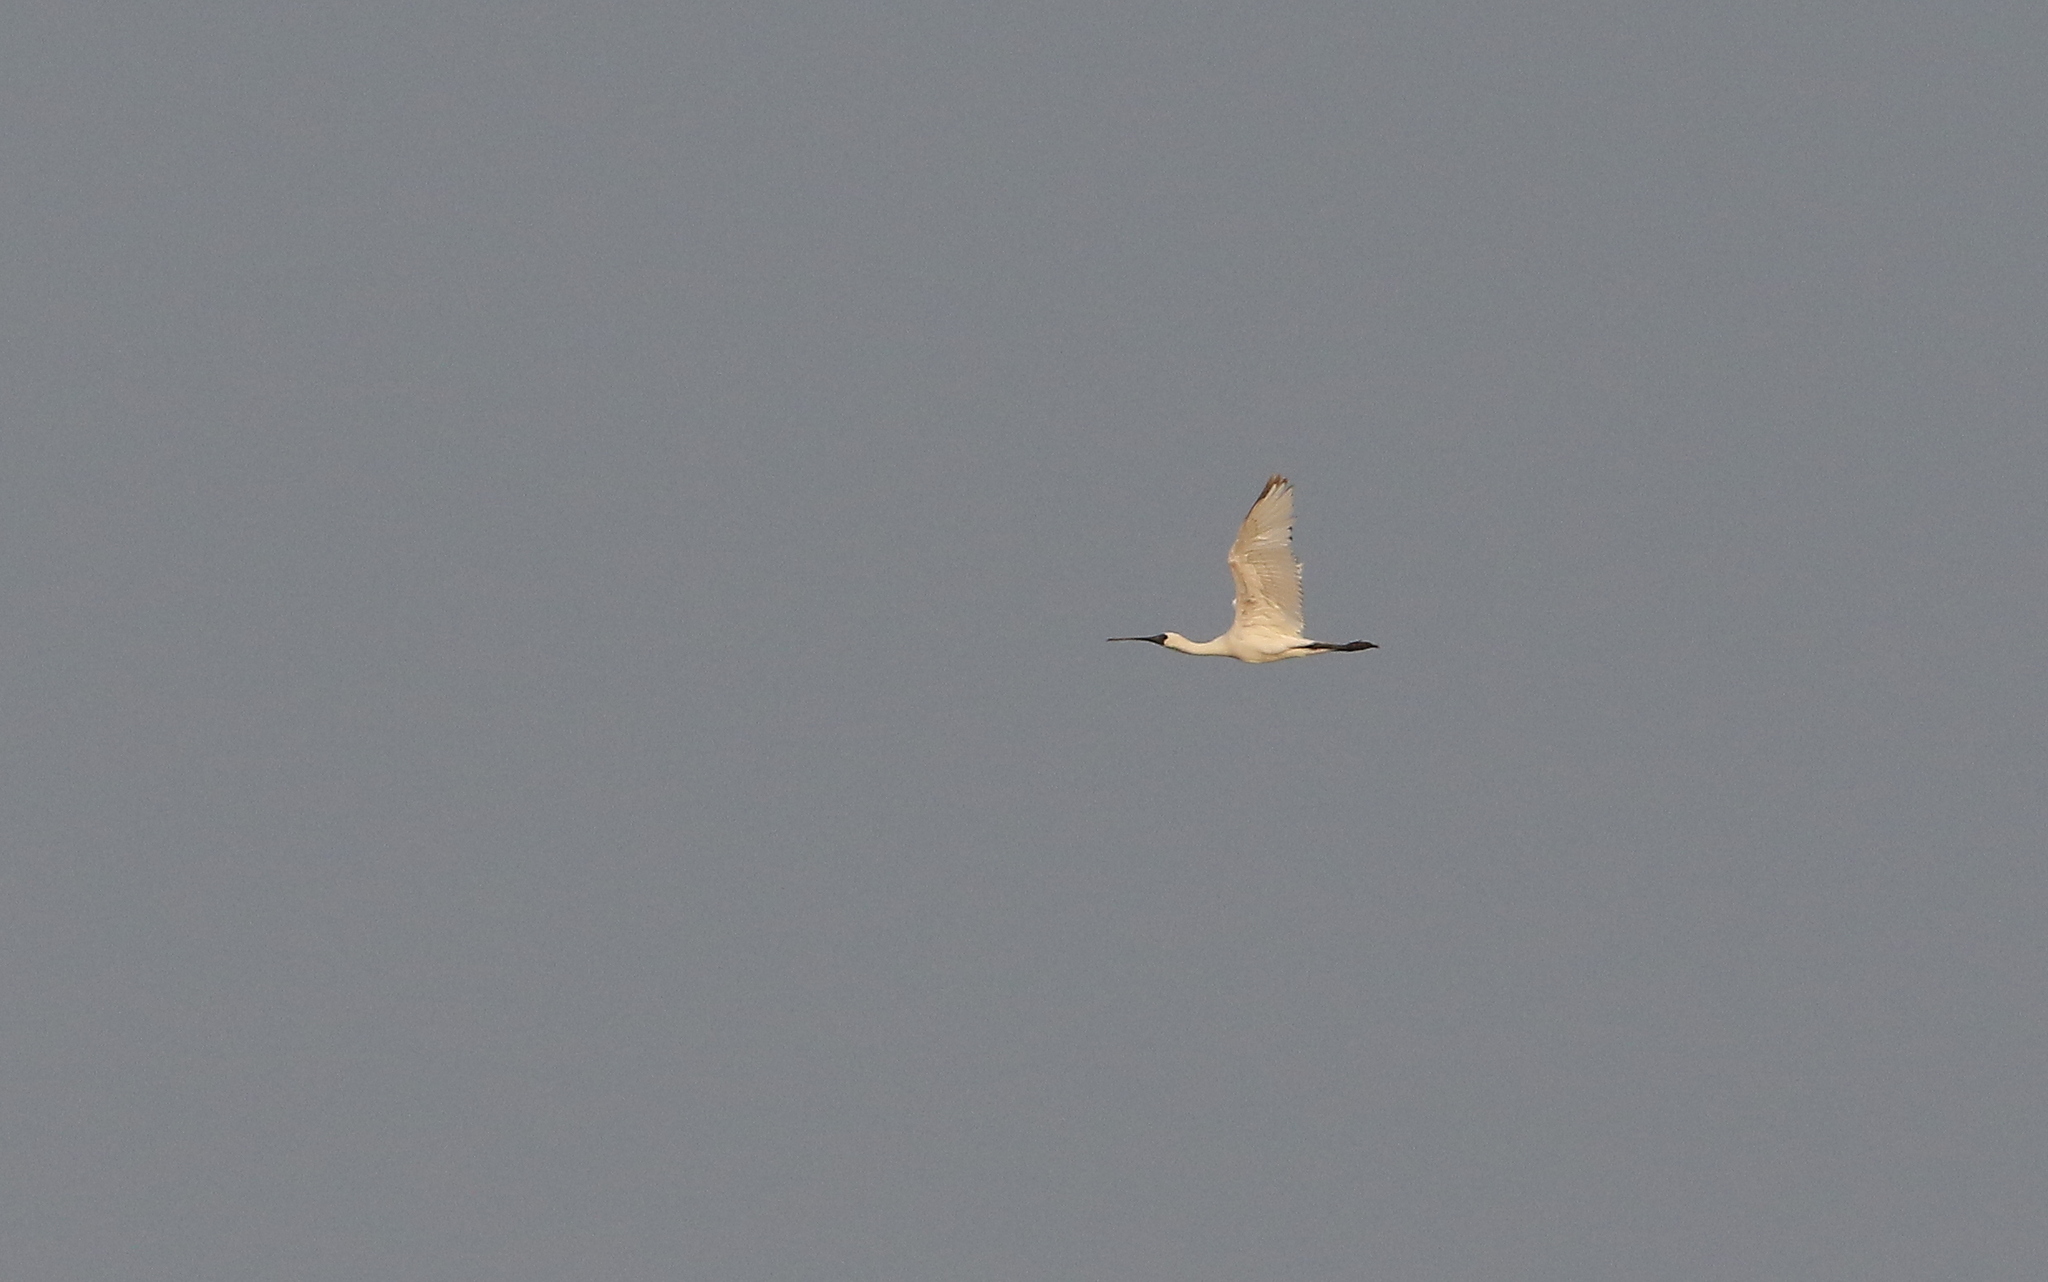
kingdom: Animalia
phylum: Chordata
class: Aves
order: Pelecaniformes
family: Threskiornithidae
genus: Platalea
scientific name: Platalea minor
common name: Black-faced spoonbill
